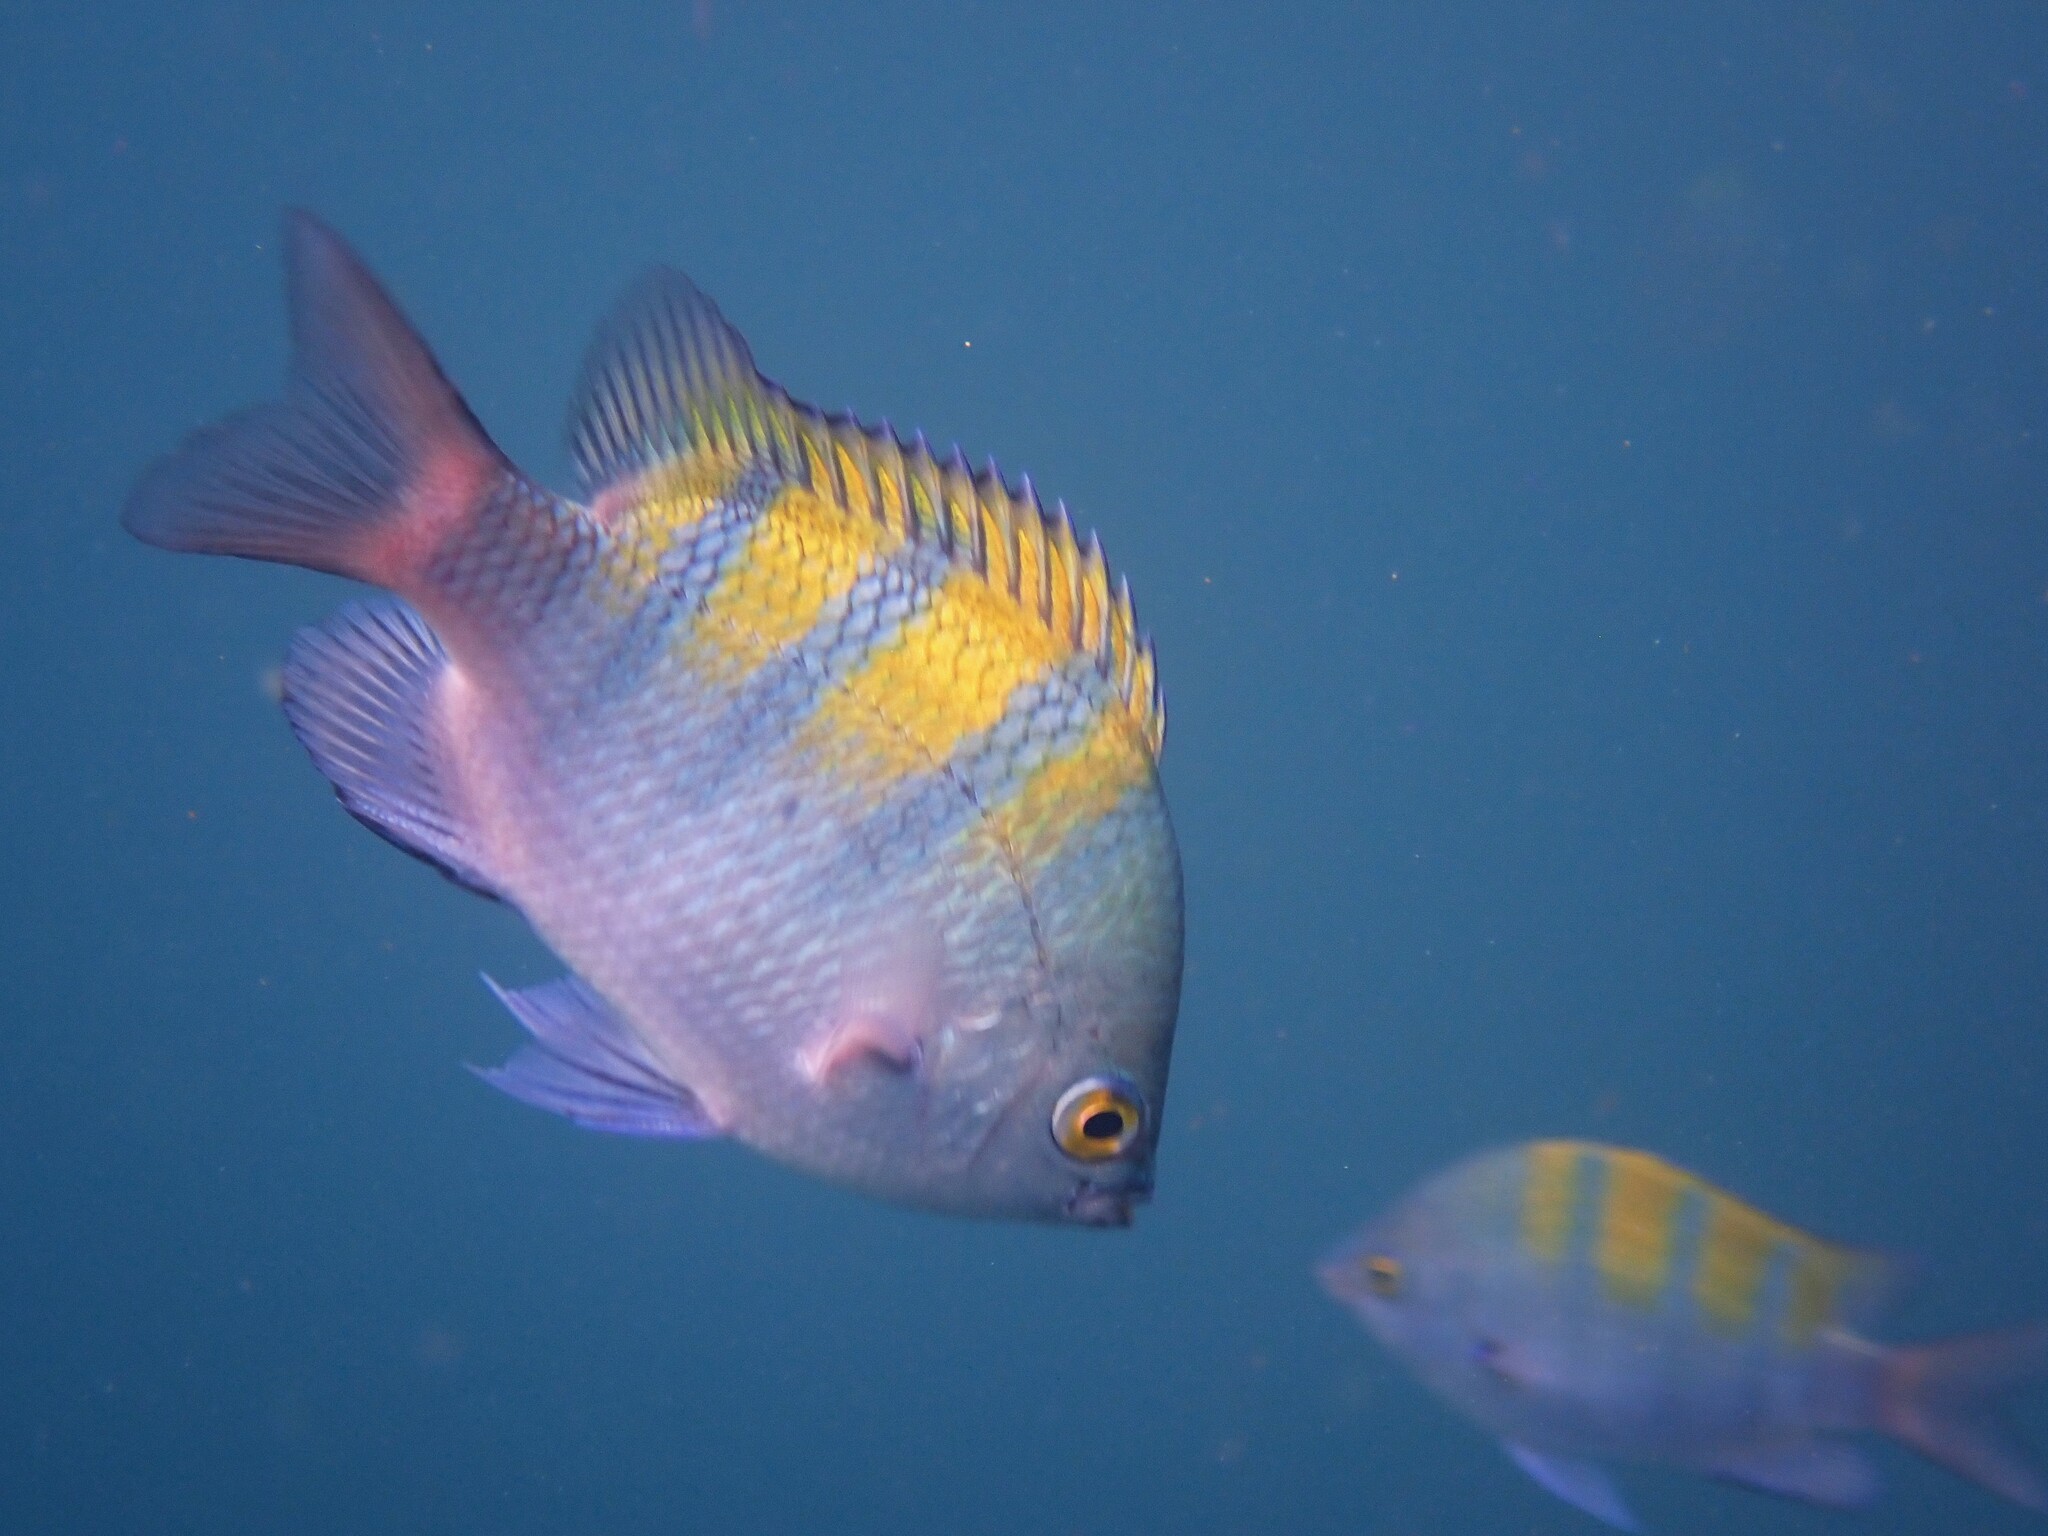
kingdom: Animalia
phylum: Chordata
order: Perciformes
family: Pomacentridae
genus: Abudefduf
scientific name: Abudefduf troschelii
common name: Panamic sergeant major
